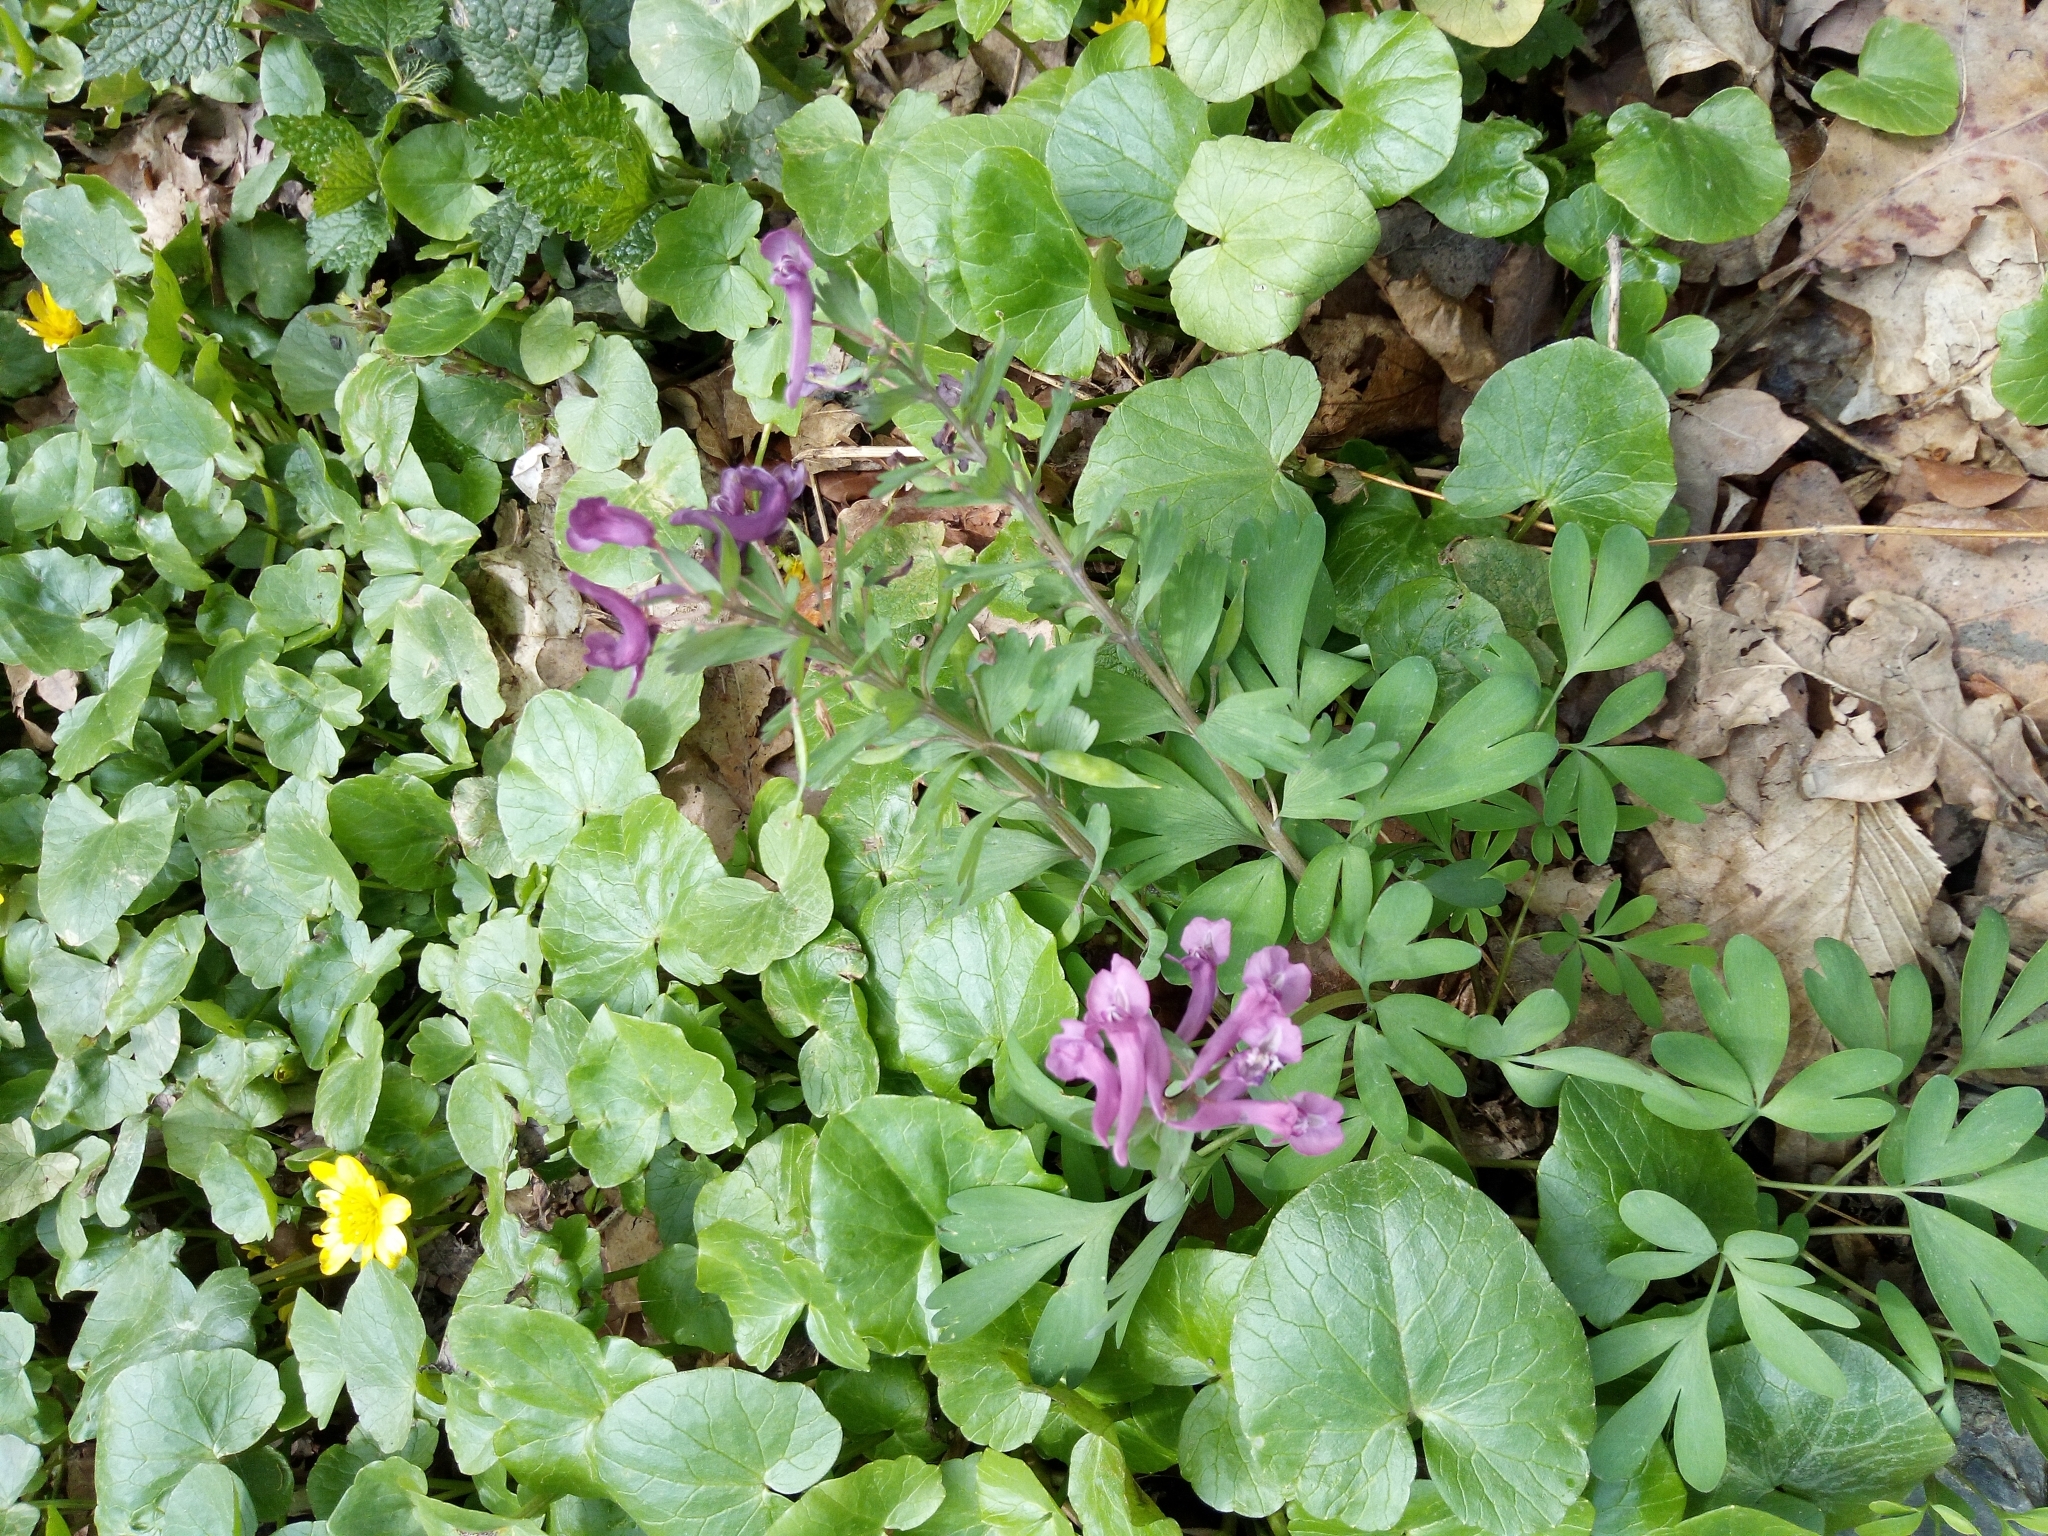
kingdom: Plantae
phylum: Tracheophyta
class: Magnoliopsida
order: Ranunculales
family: Papaveraceae
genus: Corydalis
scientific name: Corydalis solida
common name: Bird-in-a-bush
